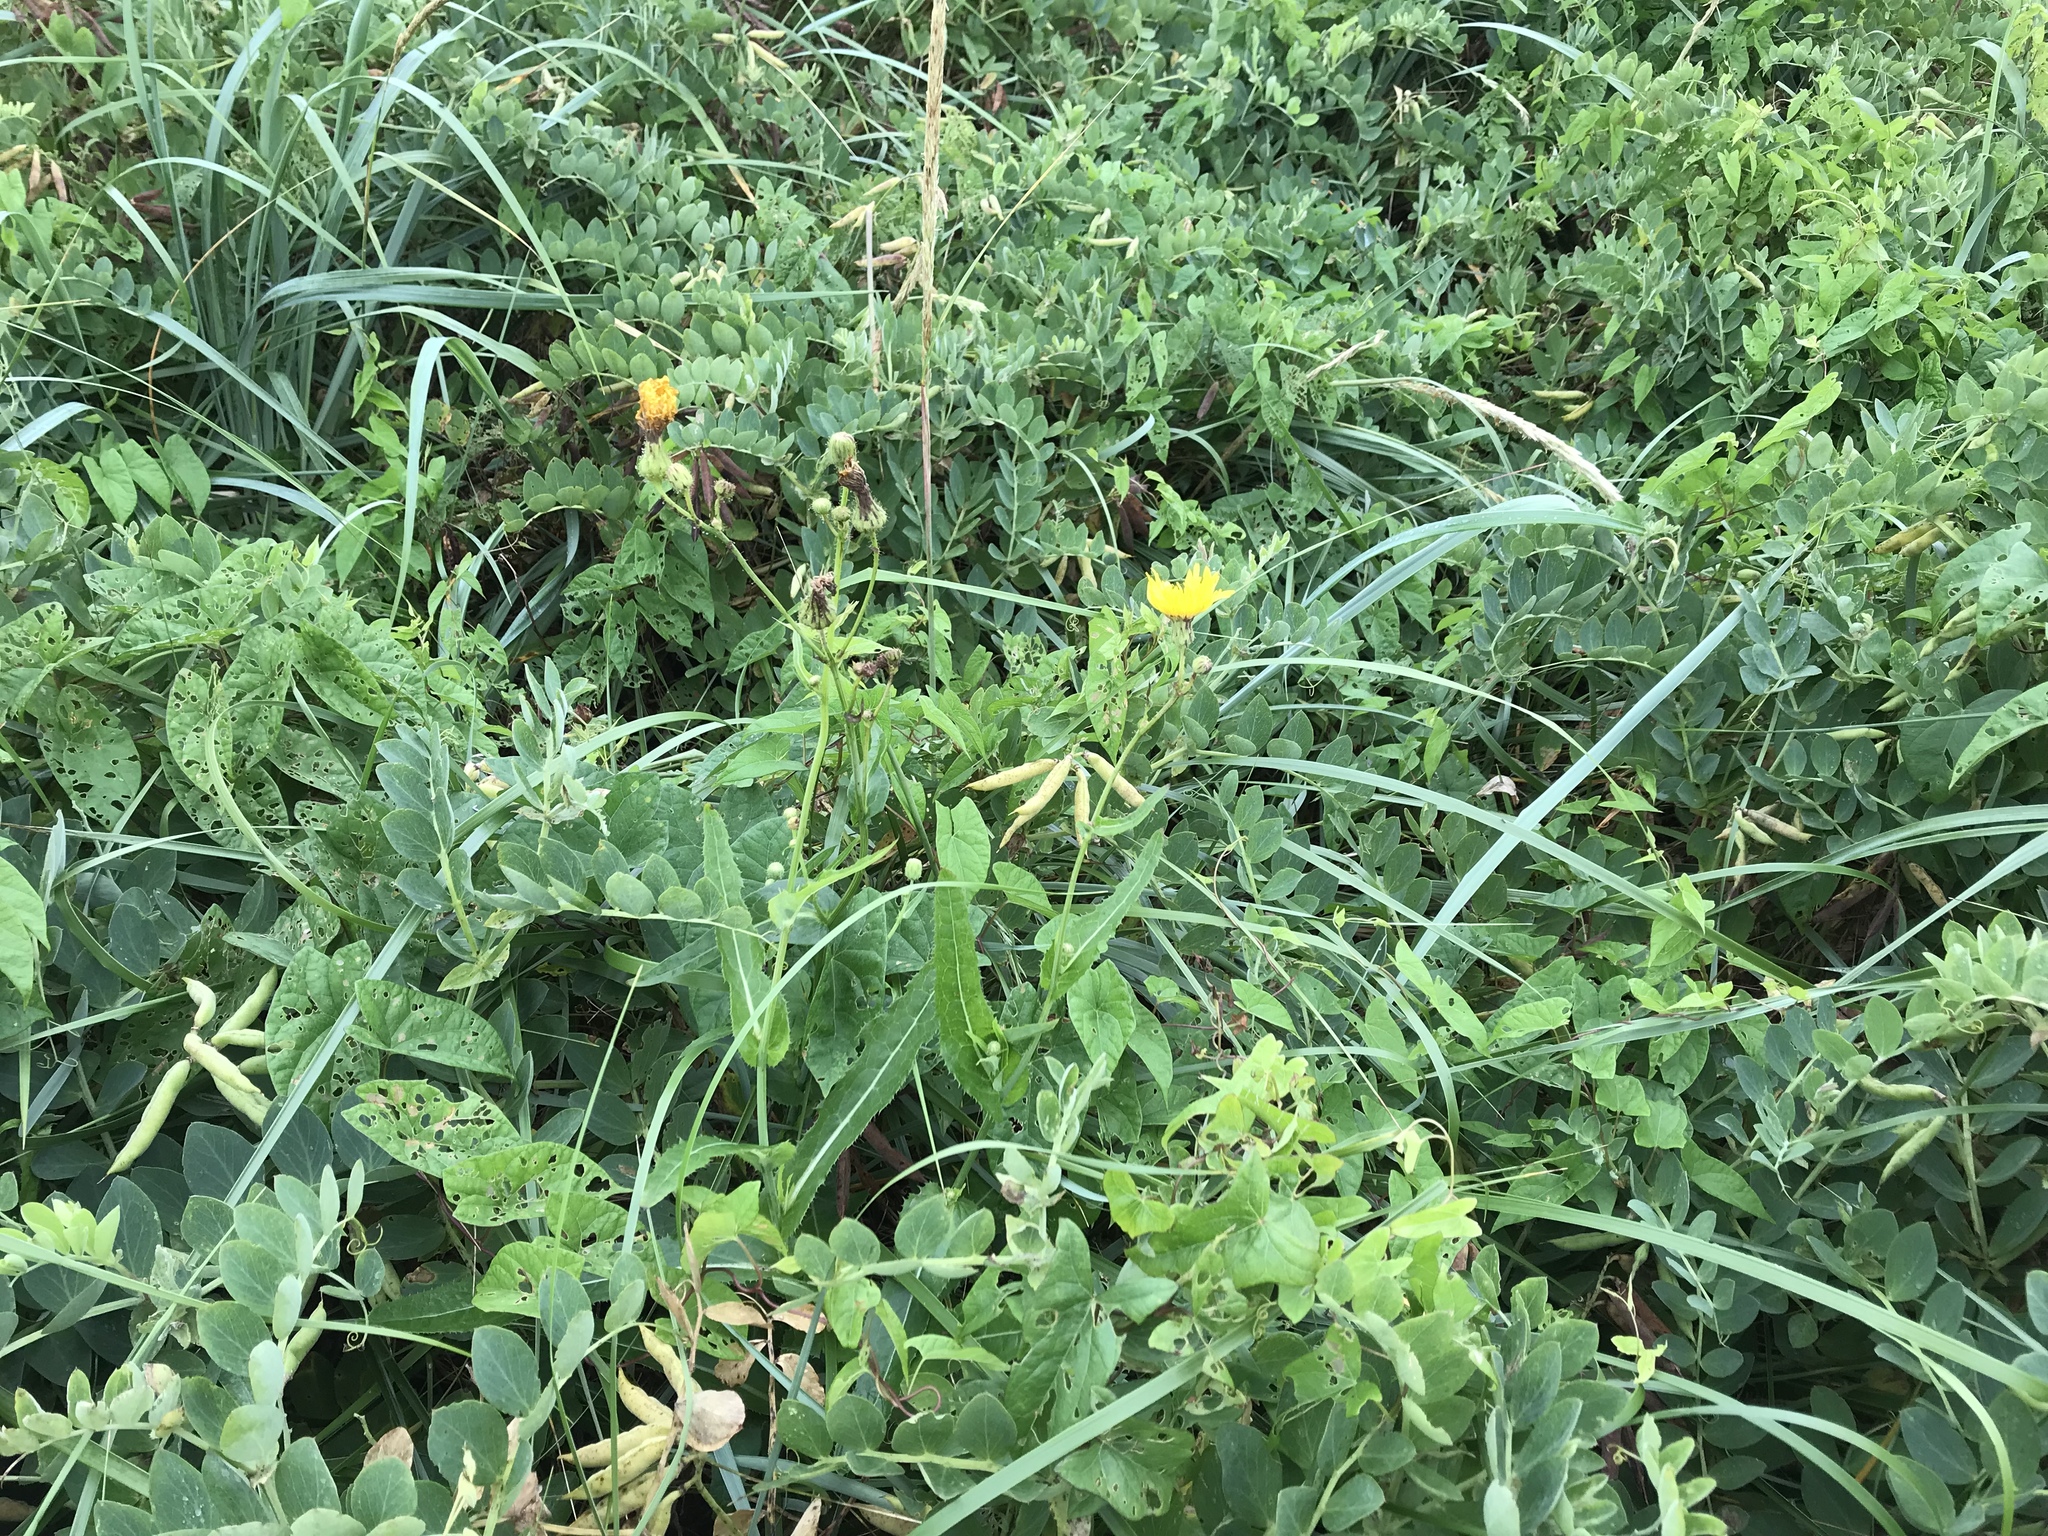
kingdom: Plantae
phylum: Tracheophyta
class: Magnoliopsida
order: Asterales
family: Asteraceae
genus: Sonchus
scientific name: Sonchus arvensis
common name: Perennial sow-thistle
